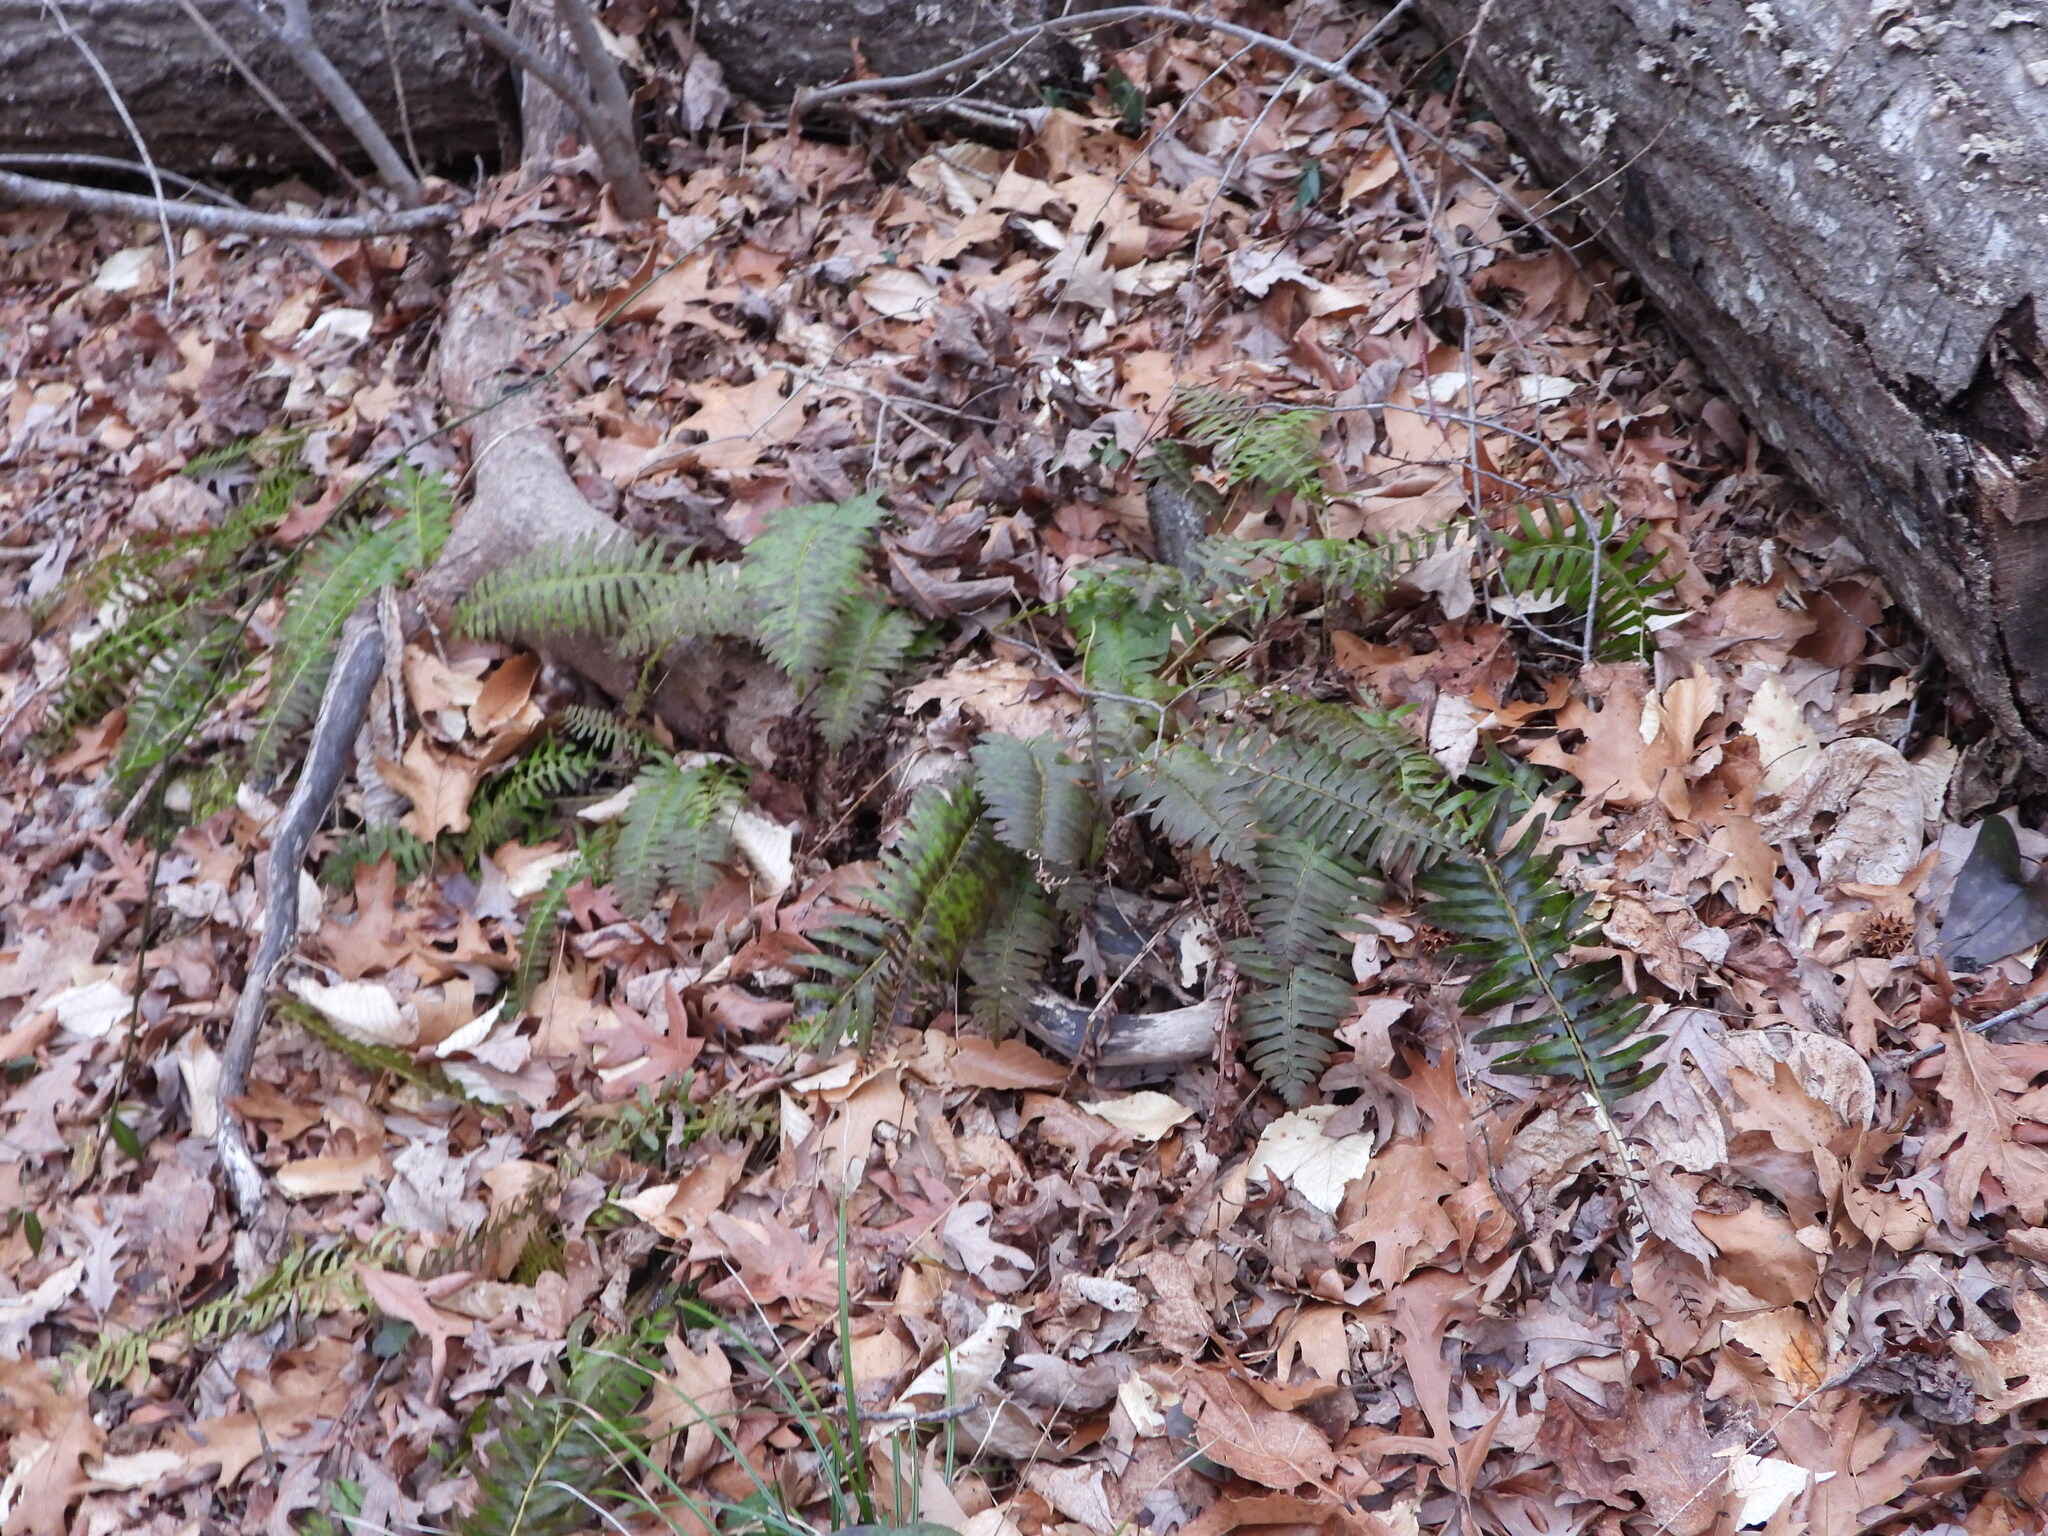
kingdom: Plantae
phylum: Tracheophyta
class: Polypodiopsida
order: Polypodiales
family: Dryopteridaceae
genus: Polystichum
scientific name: Polystichum acrostichoides
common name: Christmas fern
